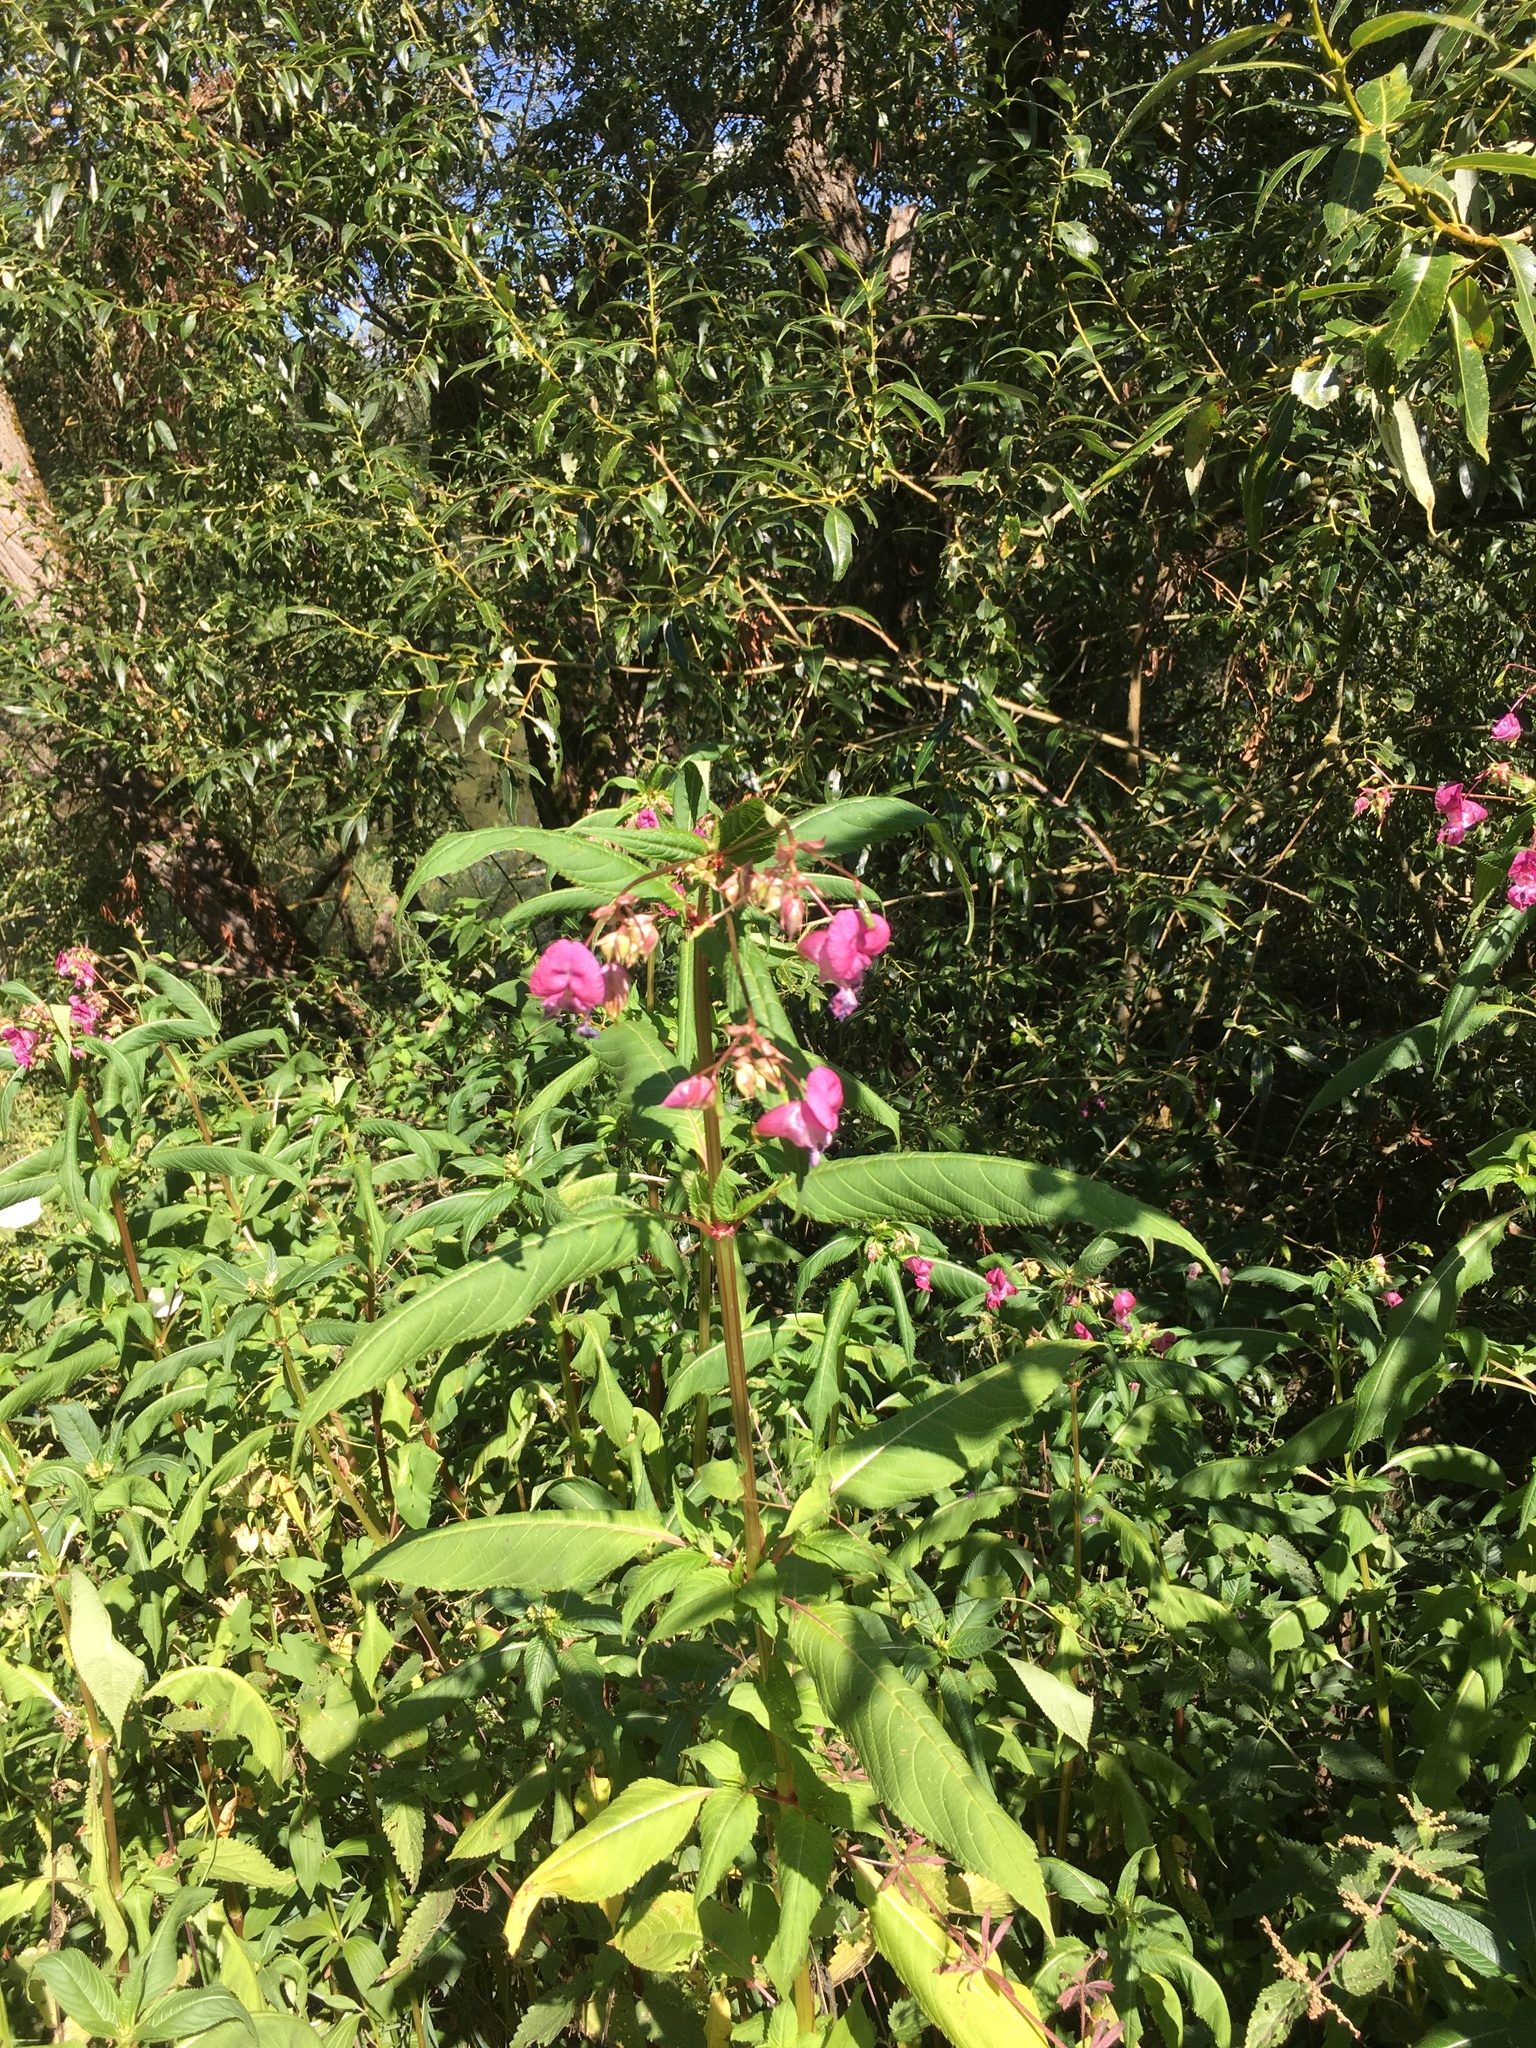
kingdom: Plantae
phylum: Tracheophyta
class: Magnoliopsida
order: Ericales
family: Balsaminaceae
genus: Impatiens
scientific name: Impatiens glandulifera
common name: Himalayan balsam
